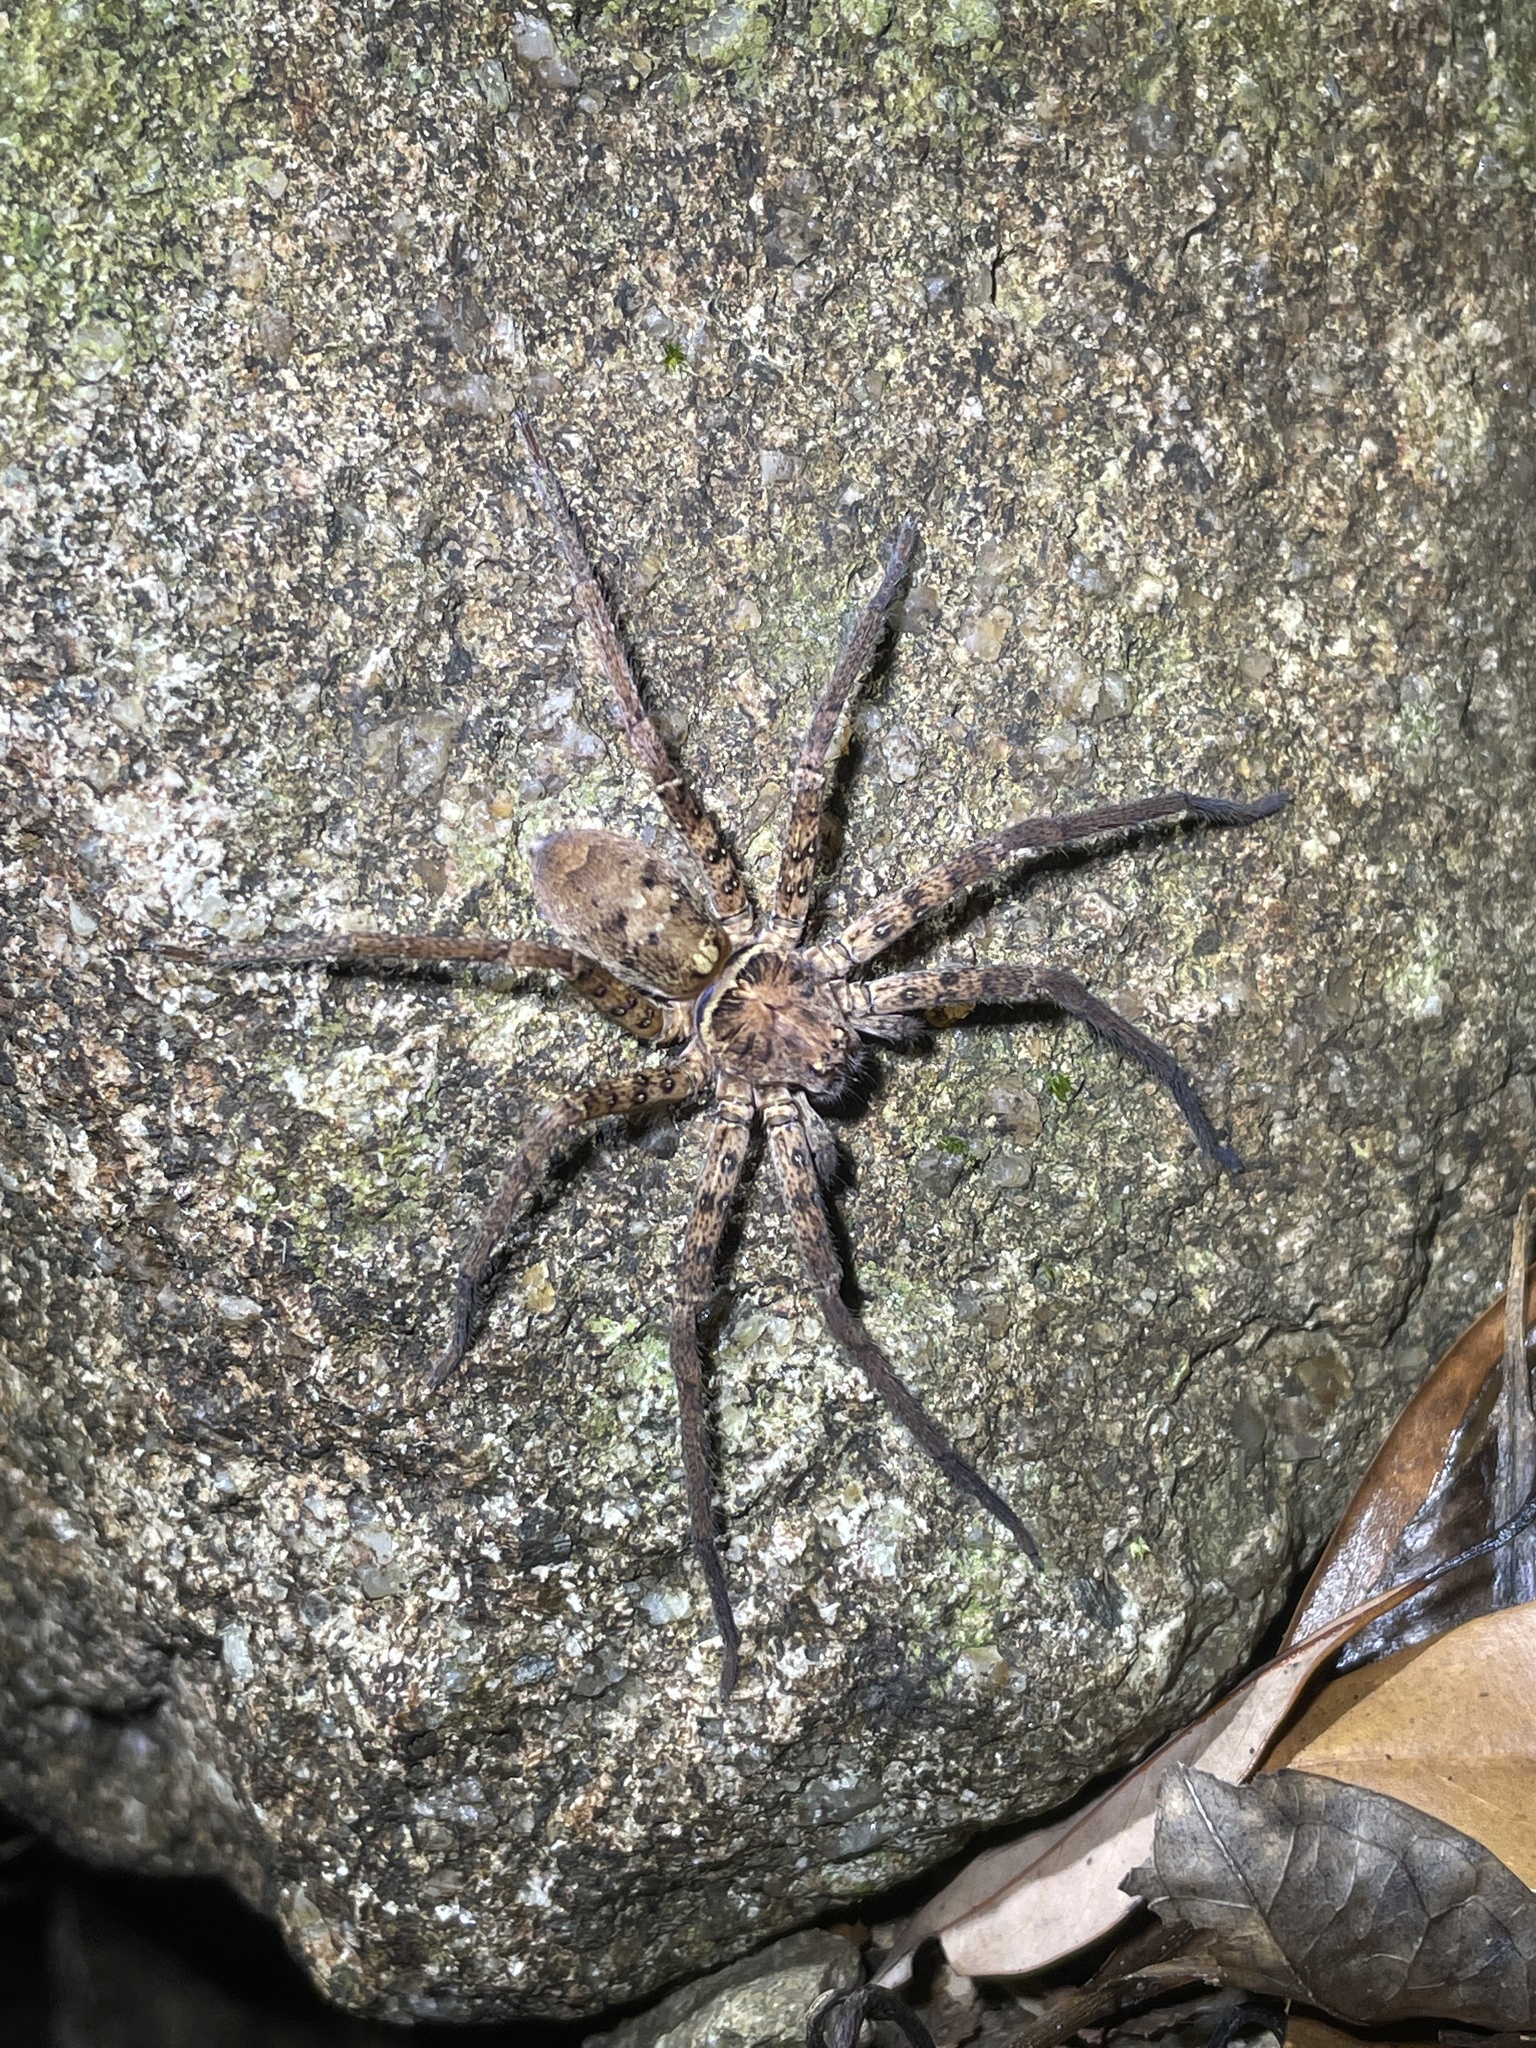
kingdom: Animalia
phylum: Arthropoda
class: Arachnida
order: Araneae
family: Sparassidae
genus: Heteropoda
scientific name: Heteropoda amphora
